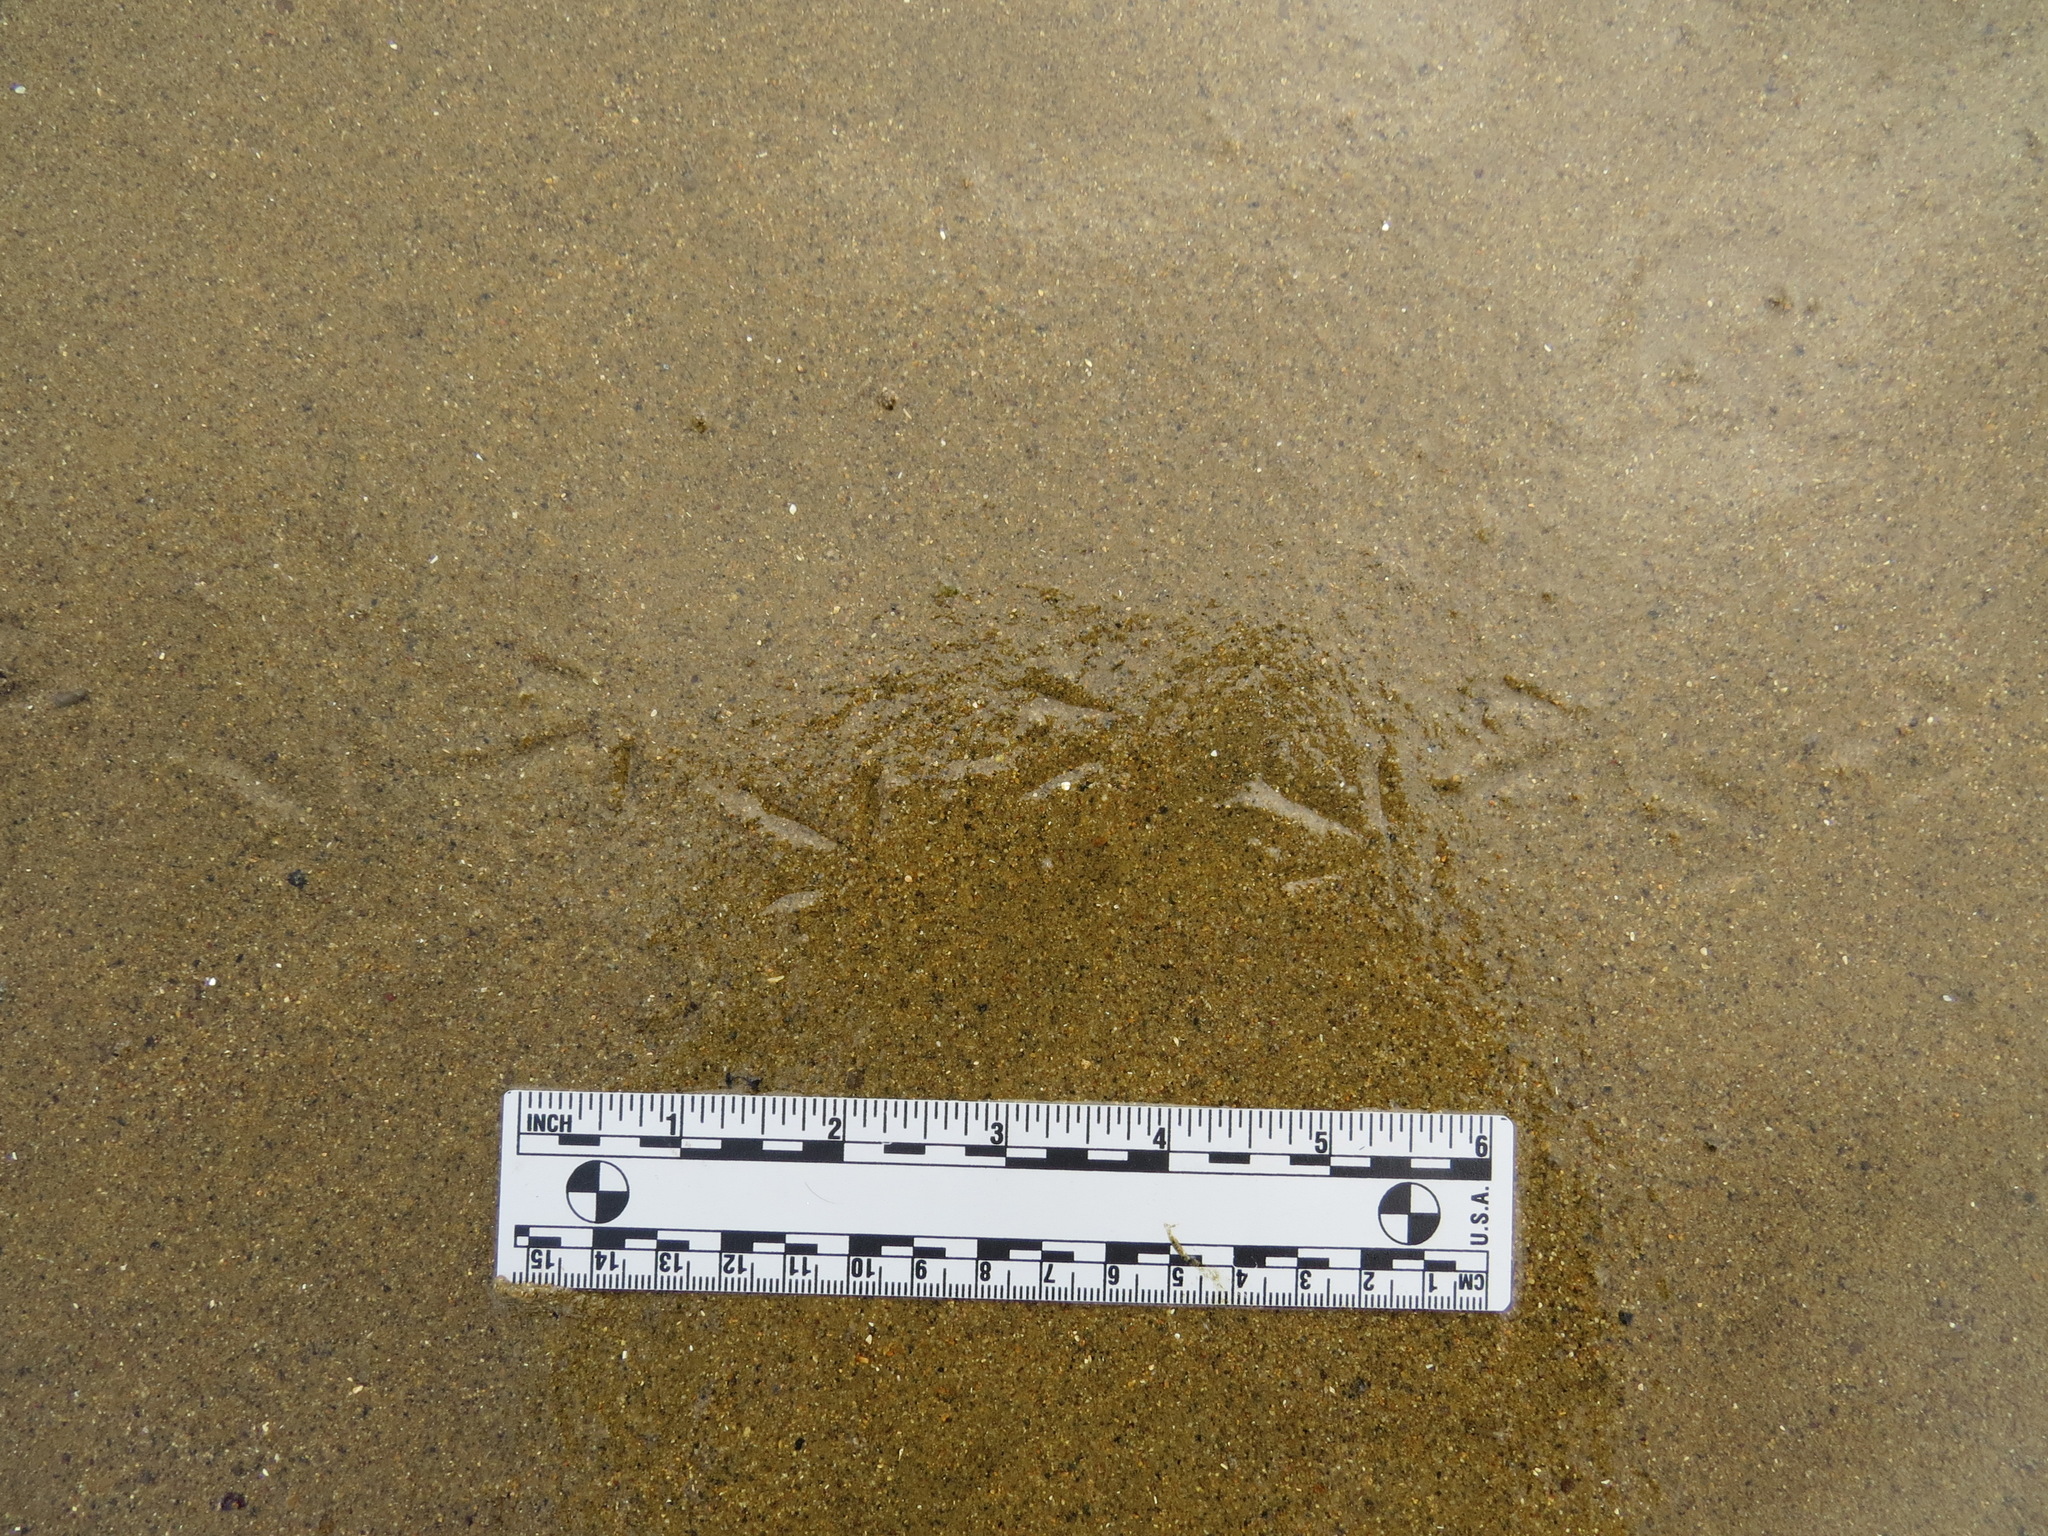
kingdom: Animalia
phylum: Chordata
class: Aves
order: Charadriiformes
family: Charadriidae
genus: Charadrius
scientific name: Charadrius semipalmatus
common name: Semipalmated plover
